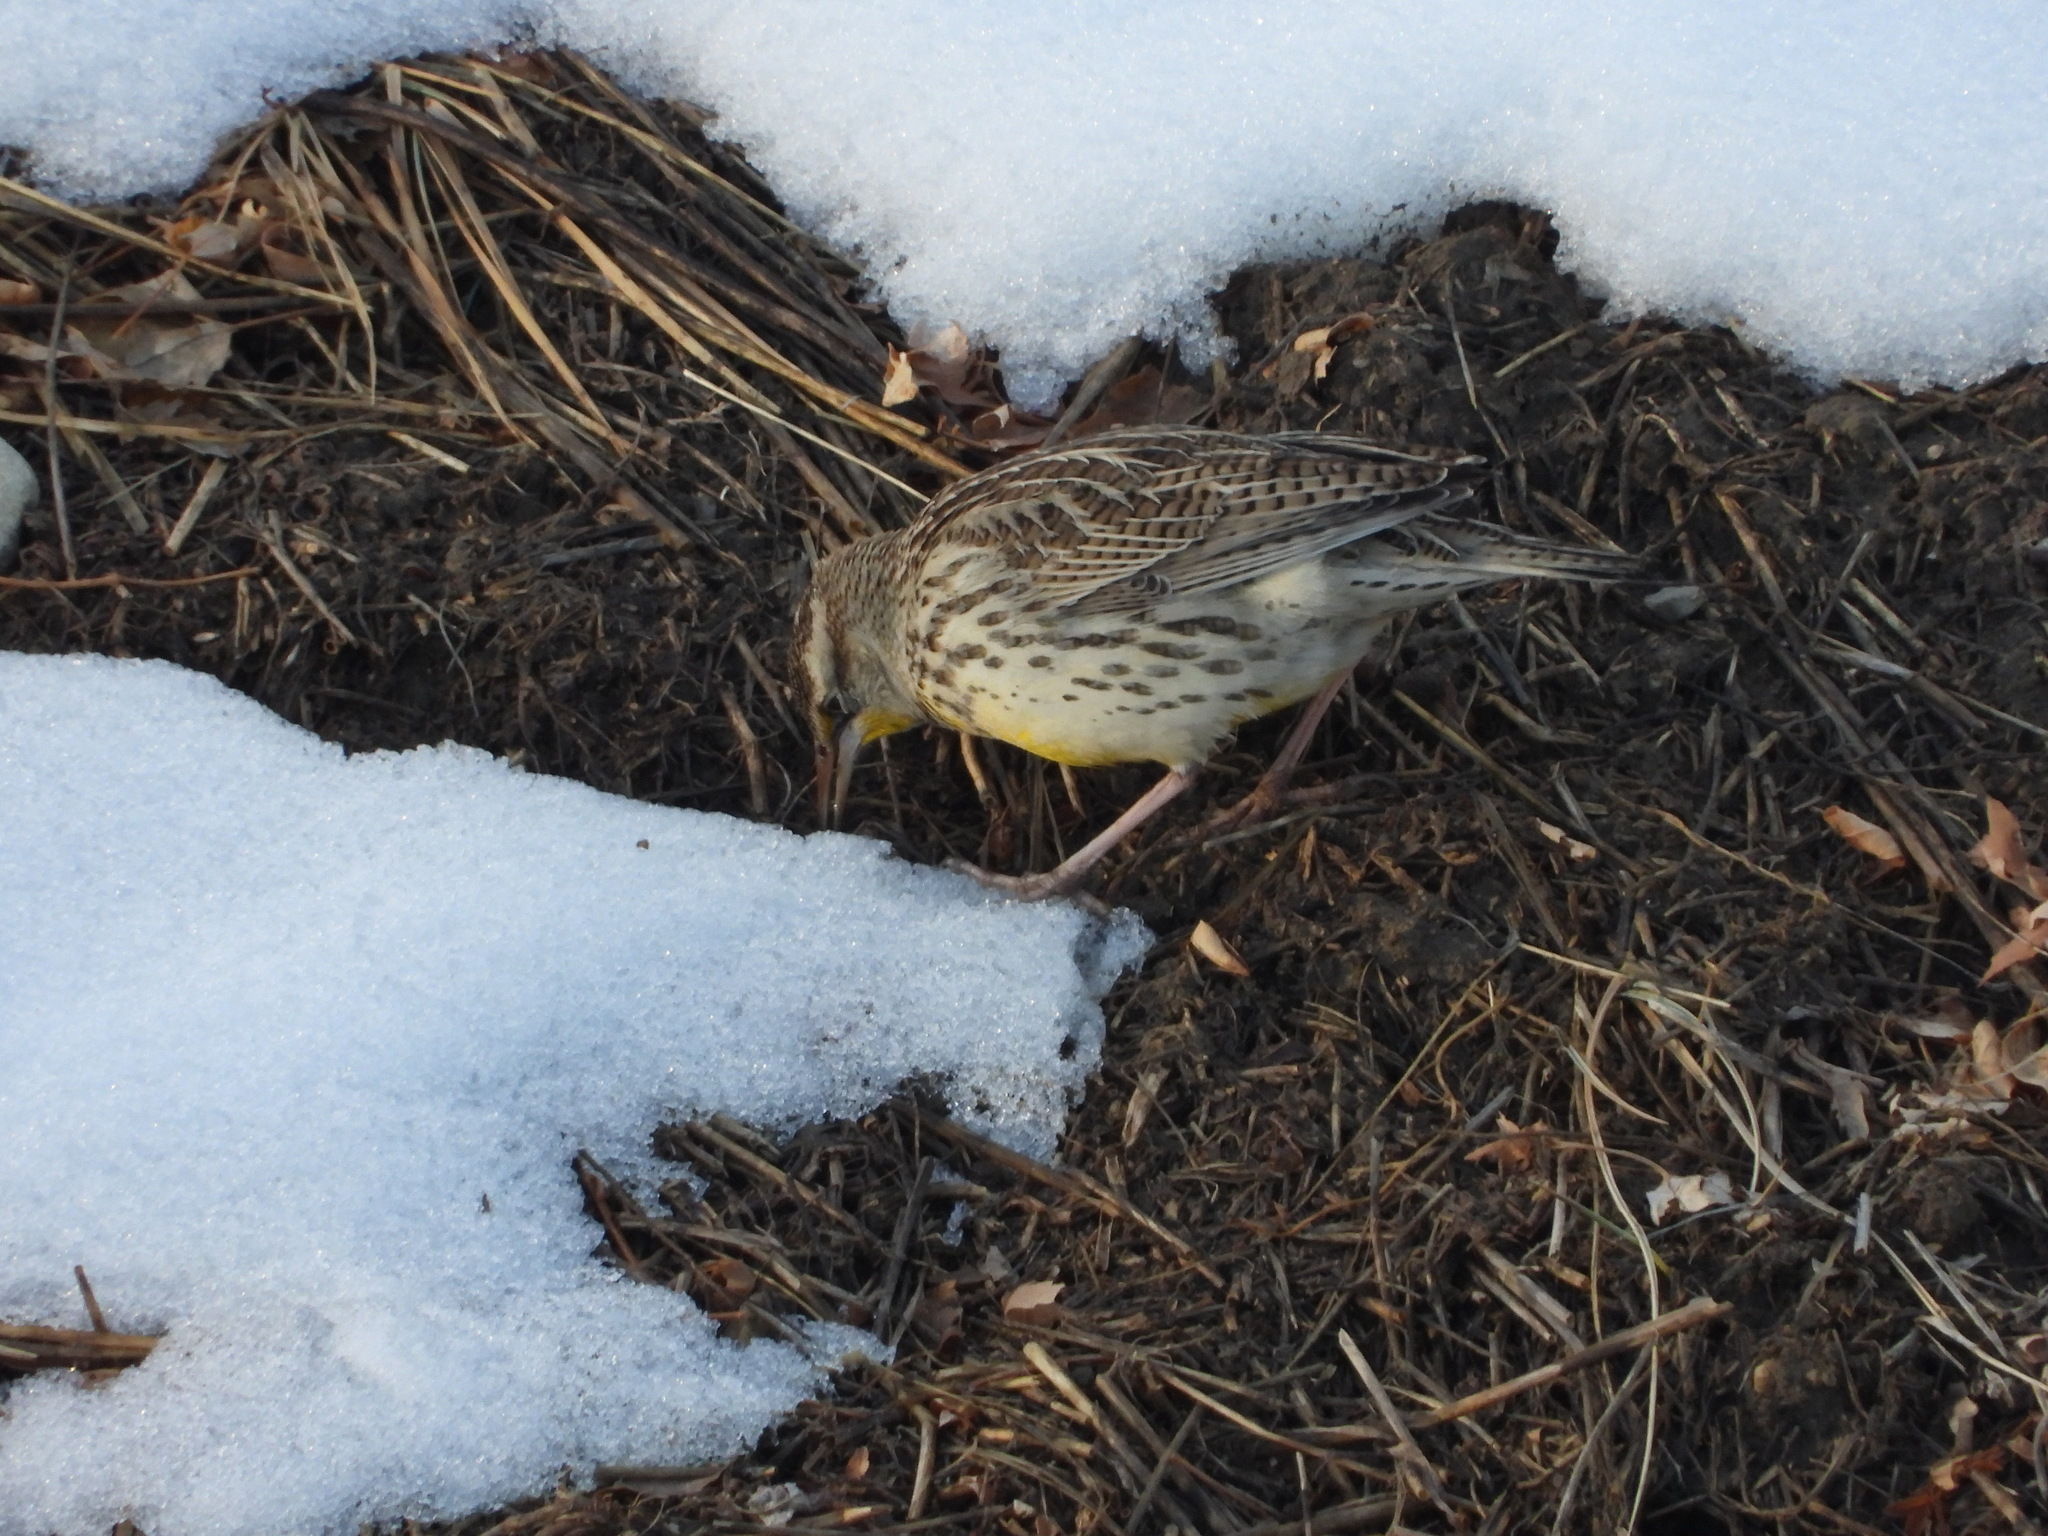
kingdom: Animalia
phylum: Chordata
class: Aves
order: Passeriformes
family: Icteridae
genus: Sturnella
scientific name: Sturnella neglecta
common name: Western meadowlark
